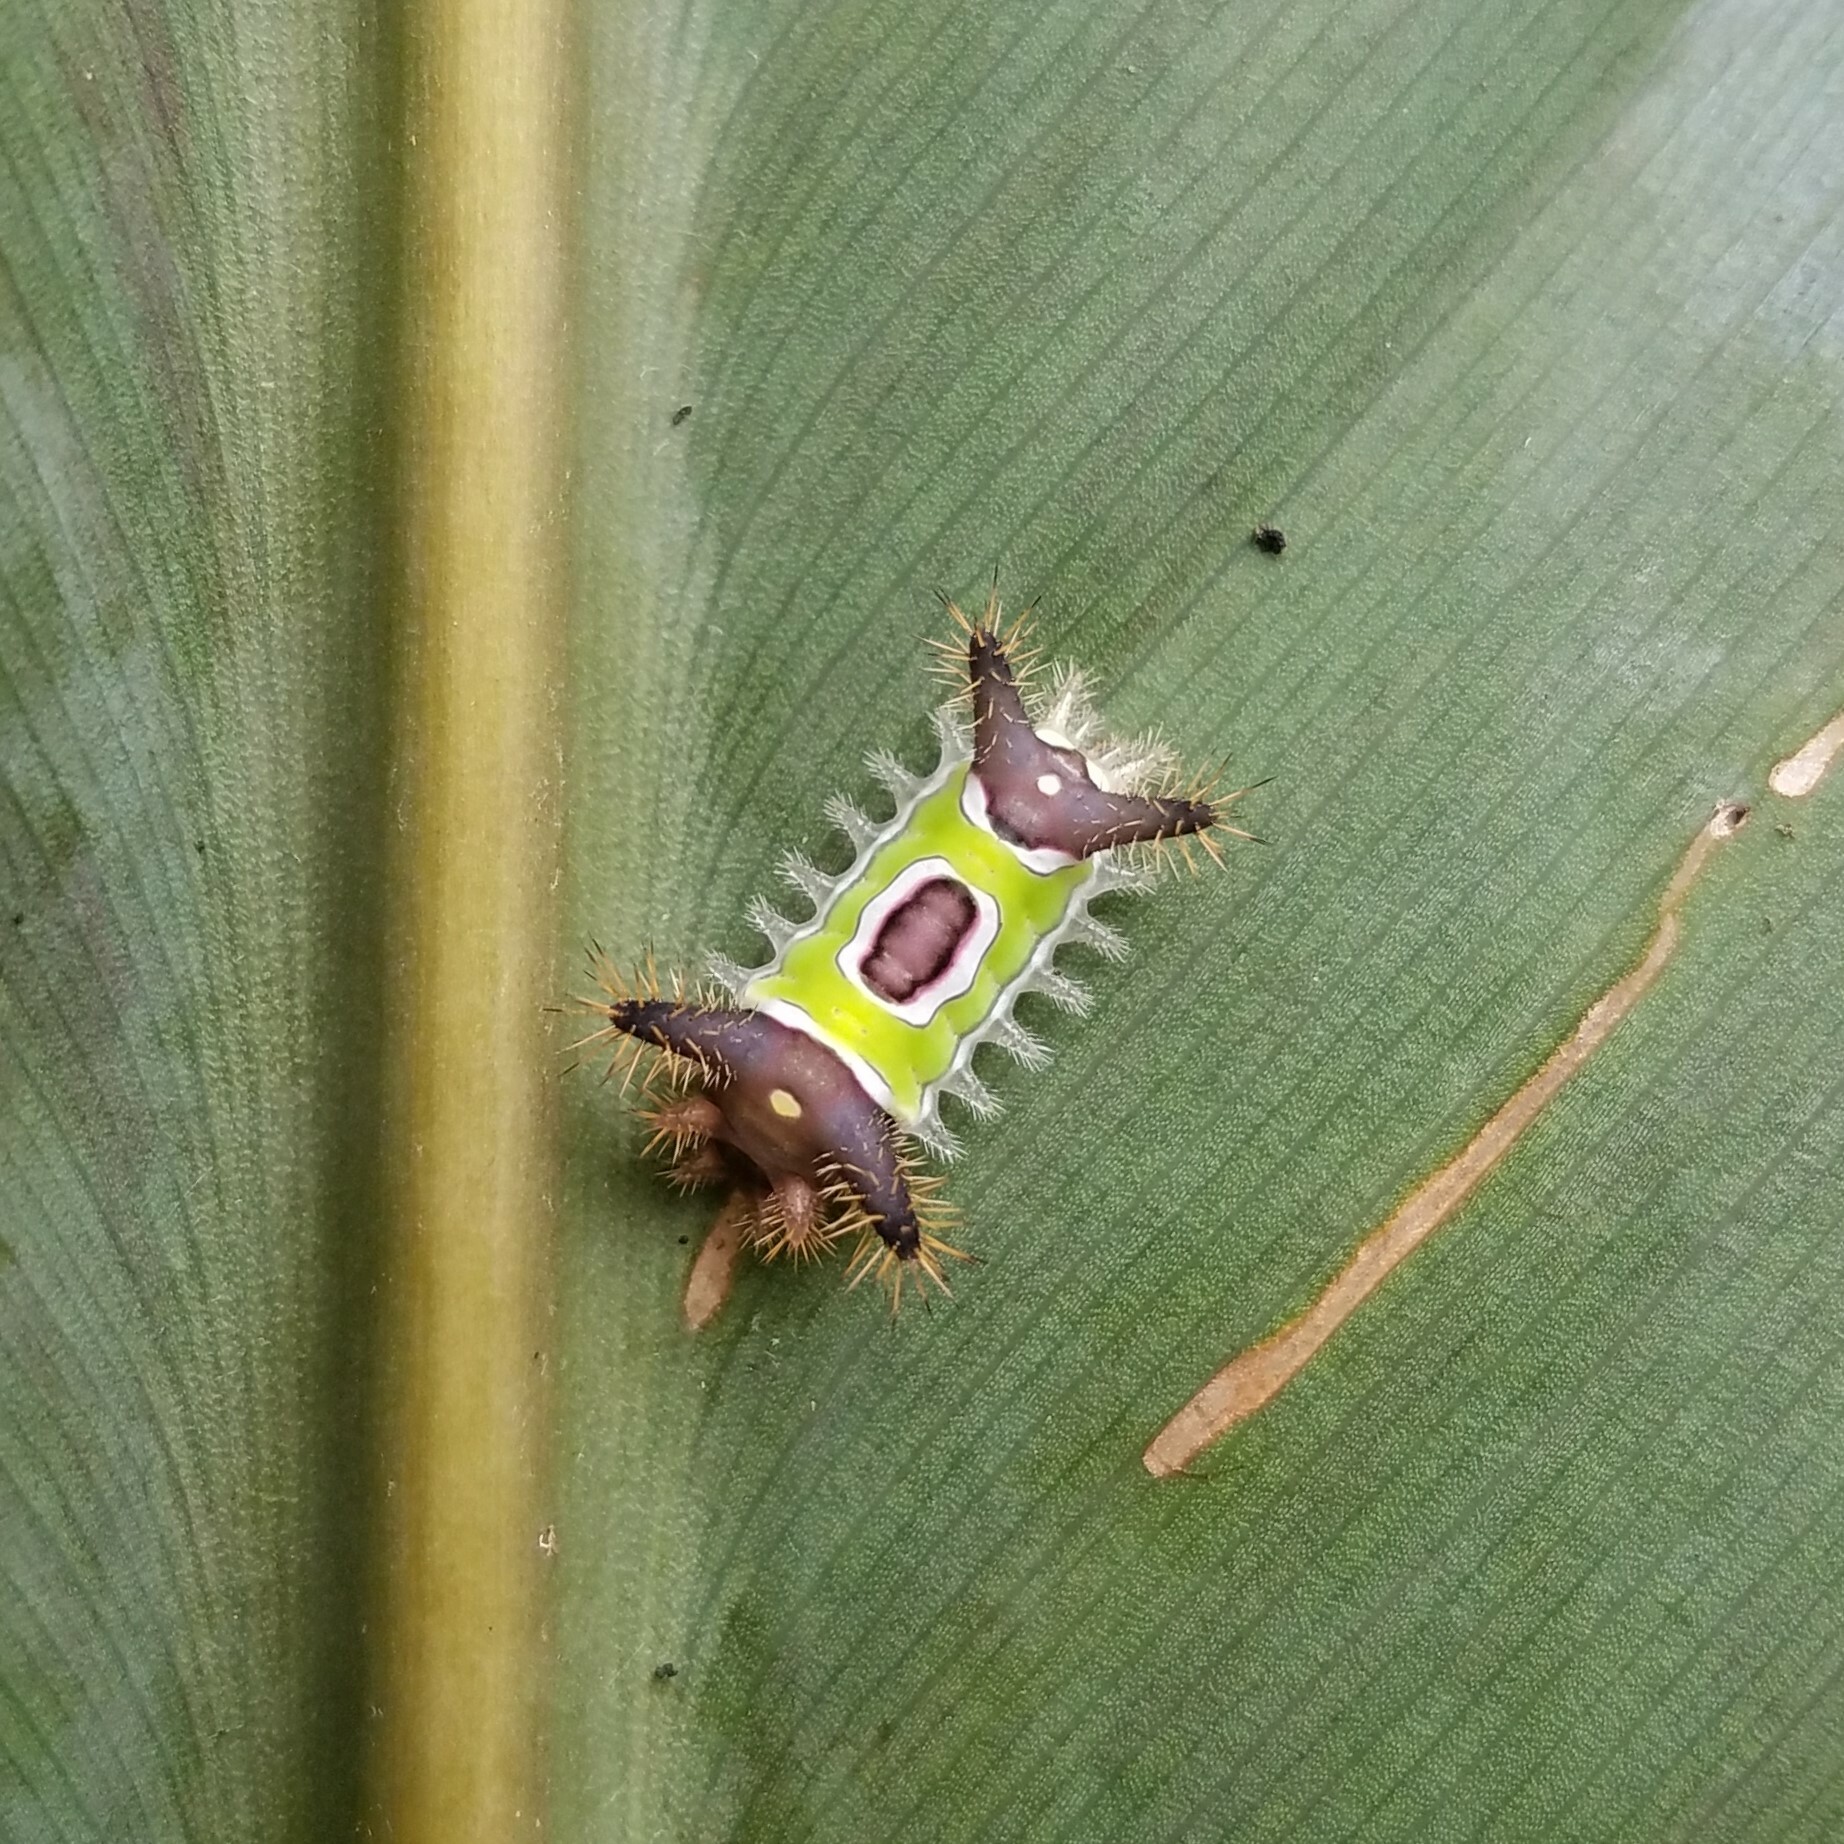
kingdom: Animalia
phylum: Arthropoda
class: Insecta
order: Lepidoptera
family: Limacodidae
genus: Acharia
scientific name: Acharia stimulea
